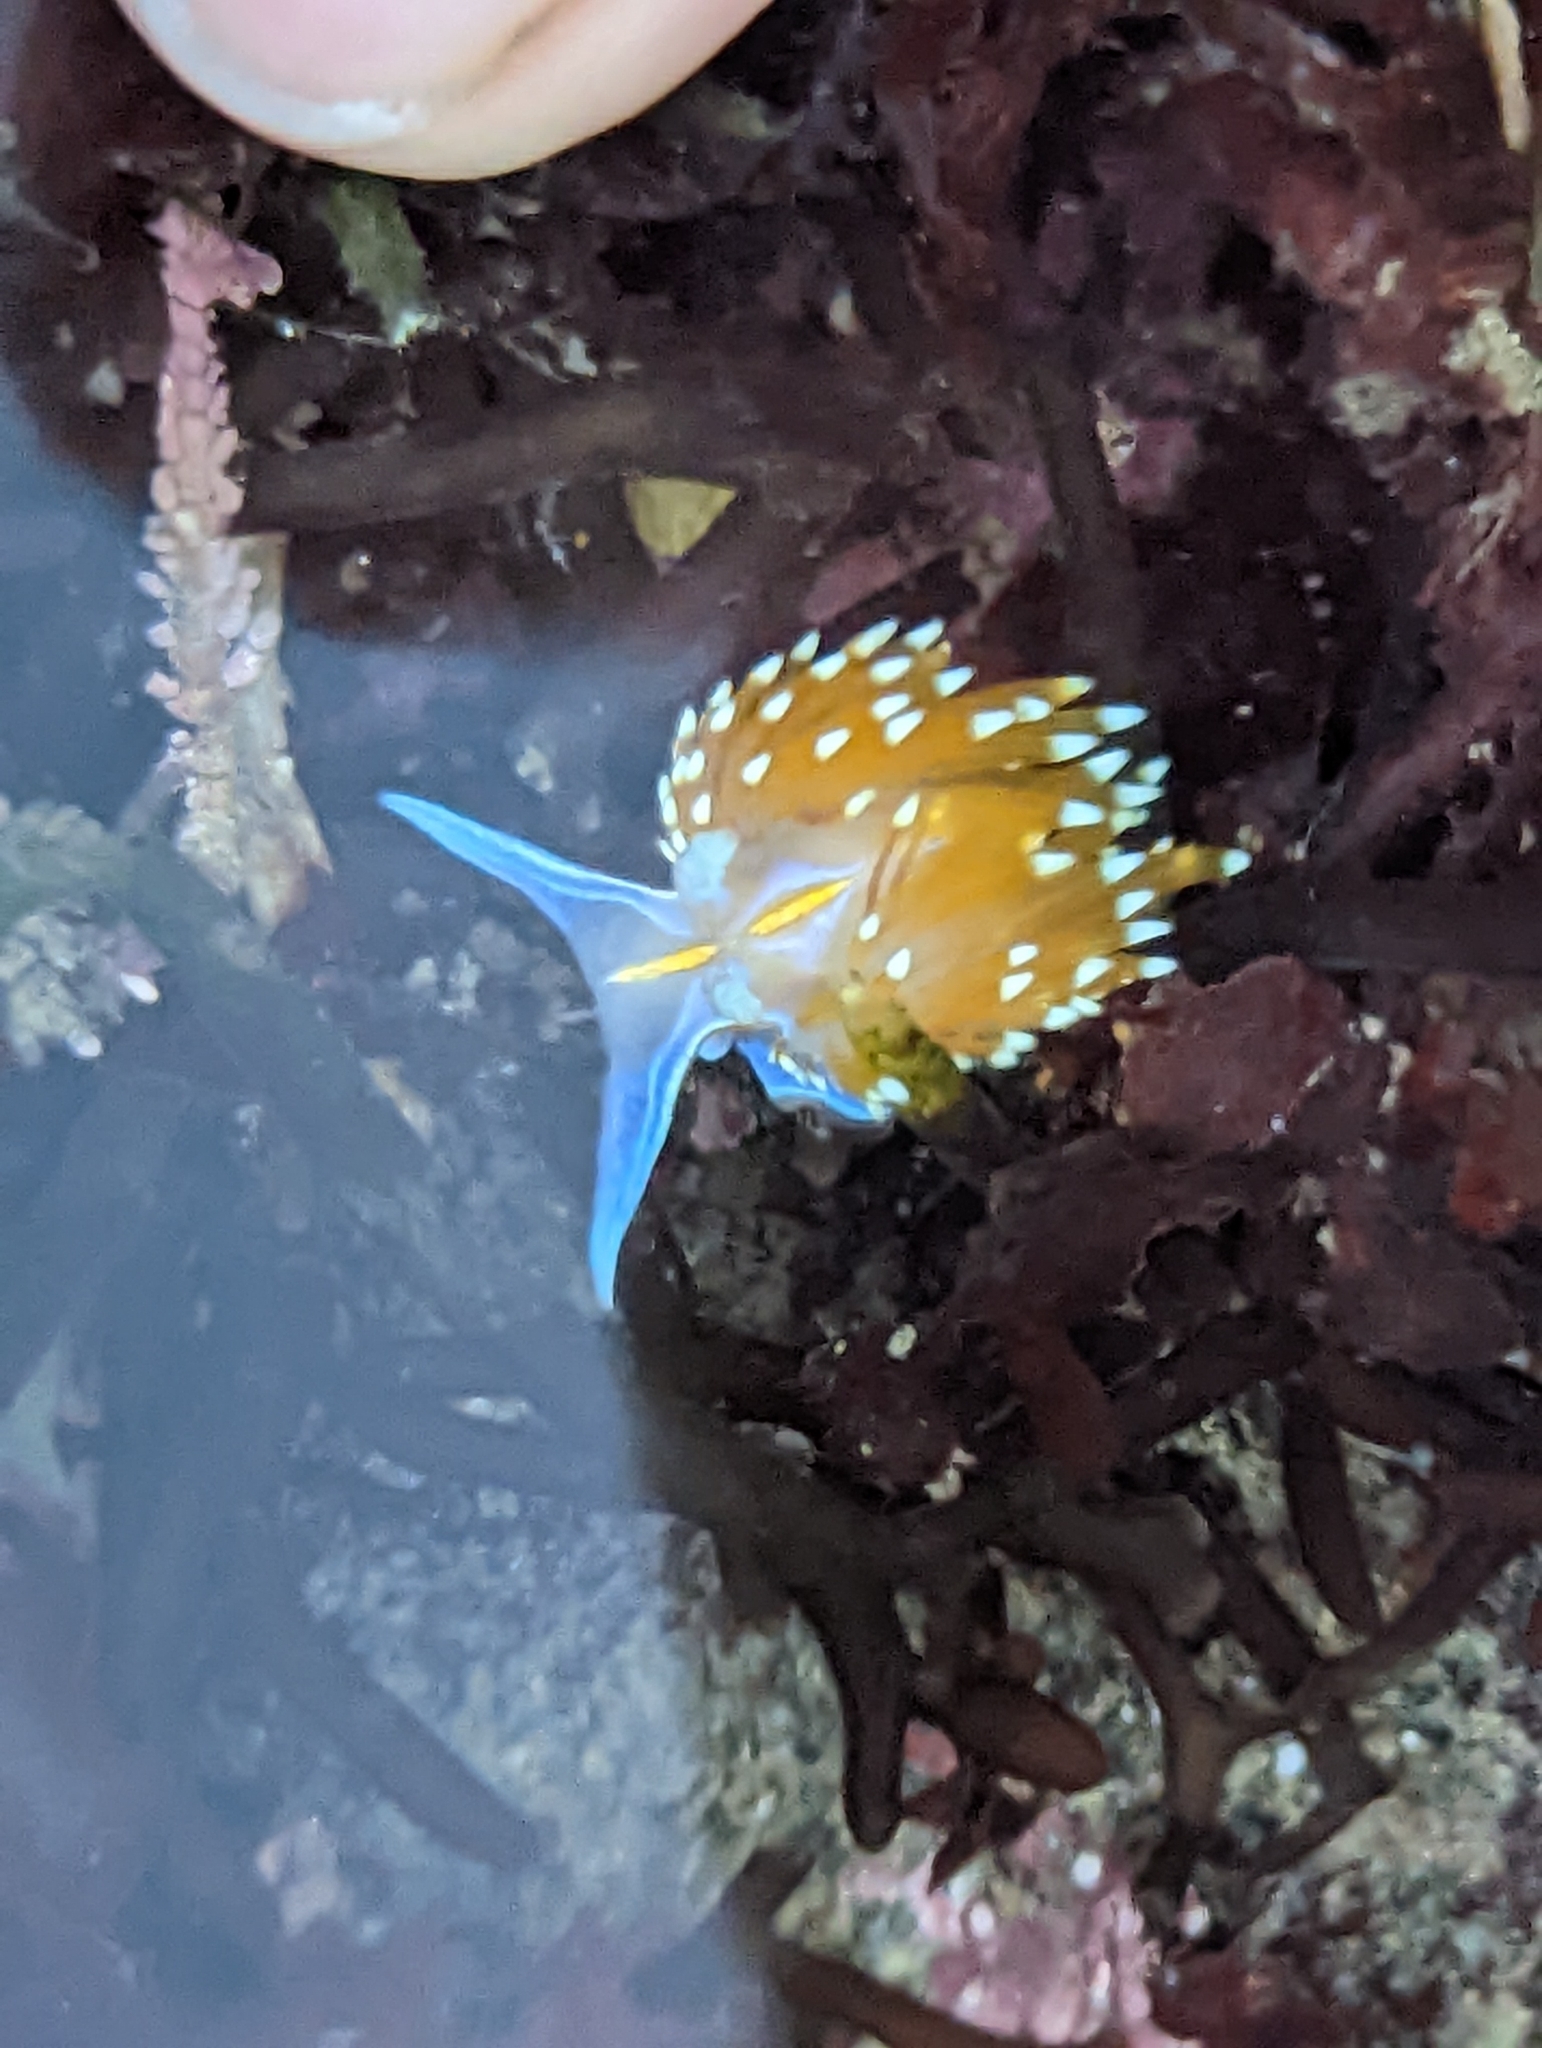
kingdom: Animalia
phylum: Mollusca
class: Gastropoda
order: Nudibranchia
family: Myrrhinidae
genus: Hermissenda
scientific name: Hermissenda opalescens
